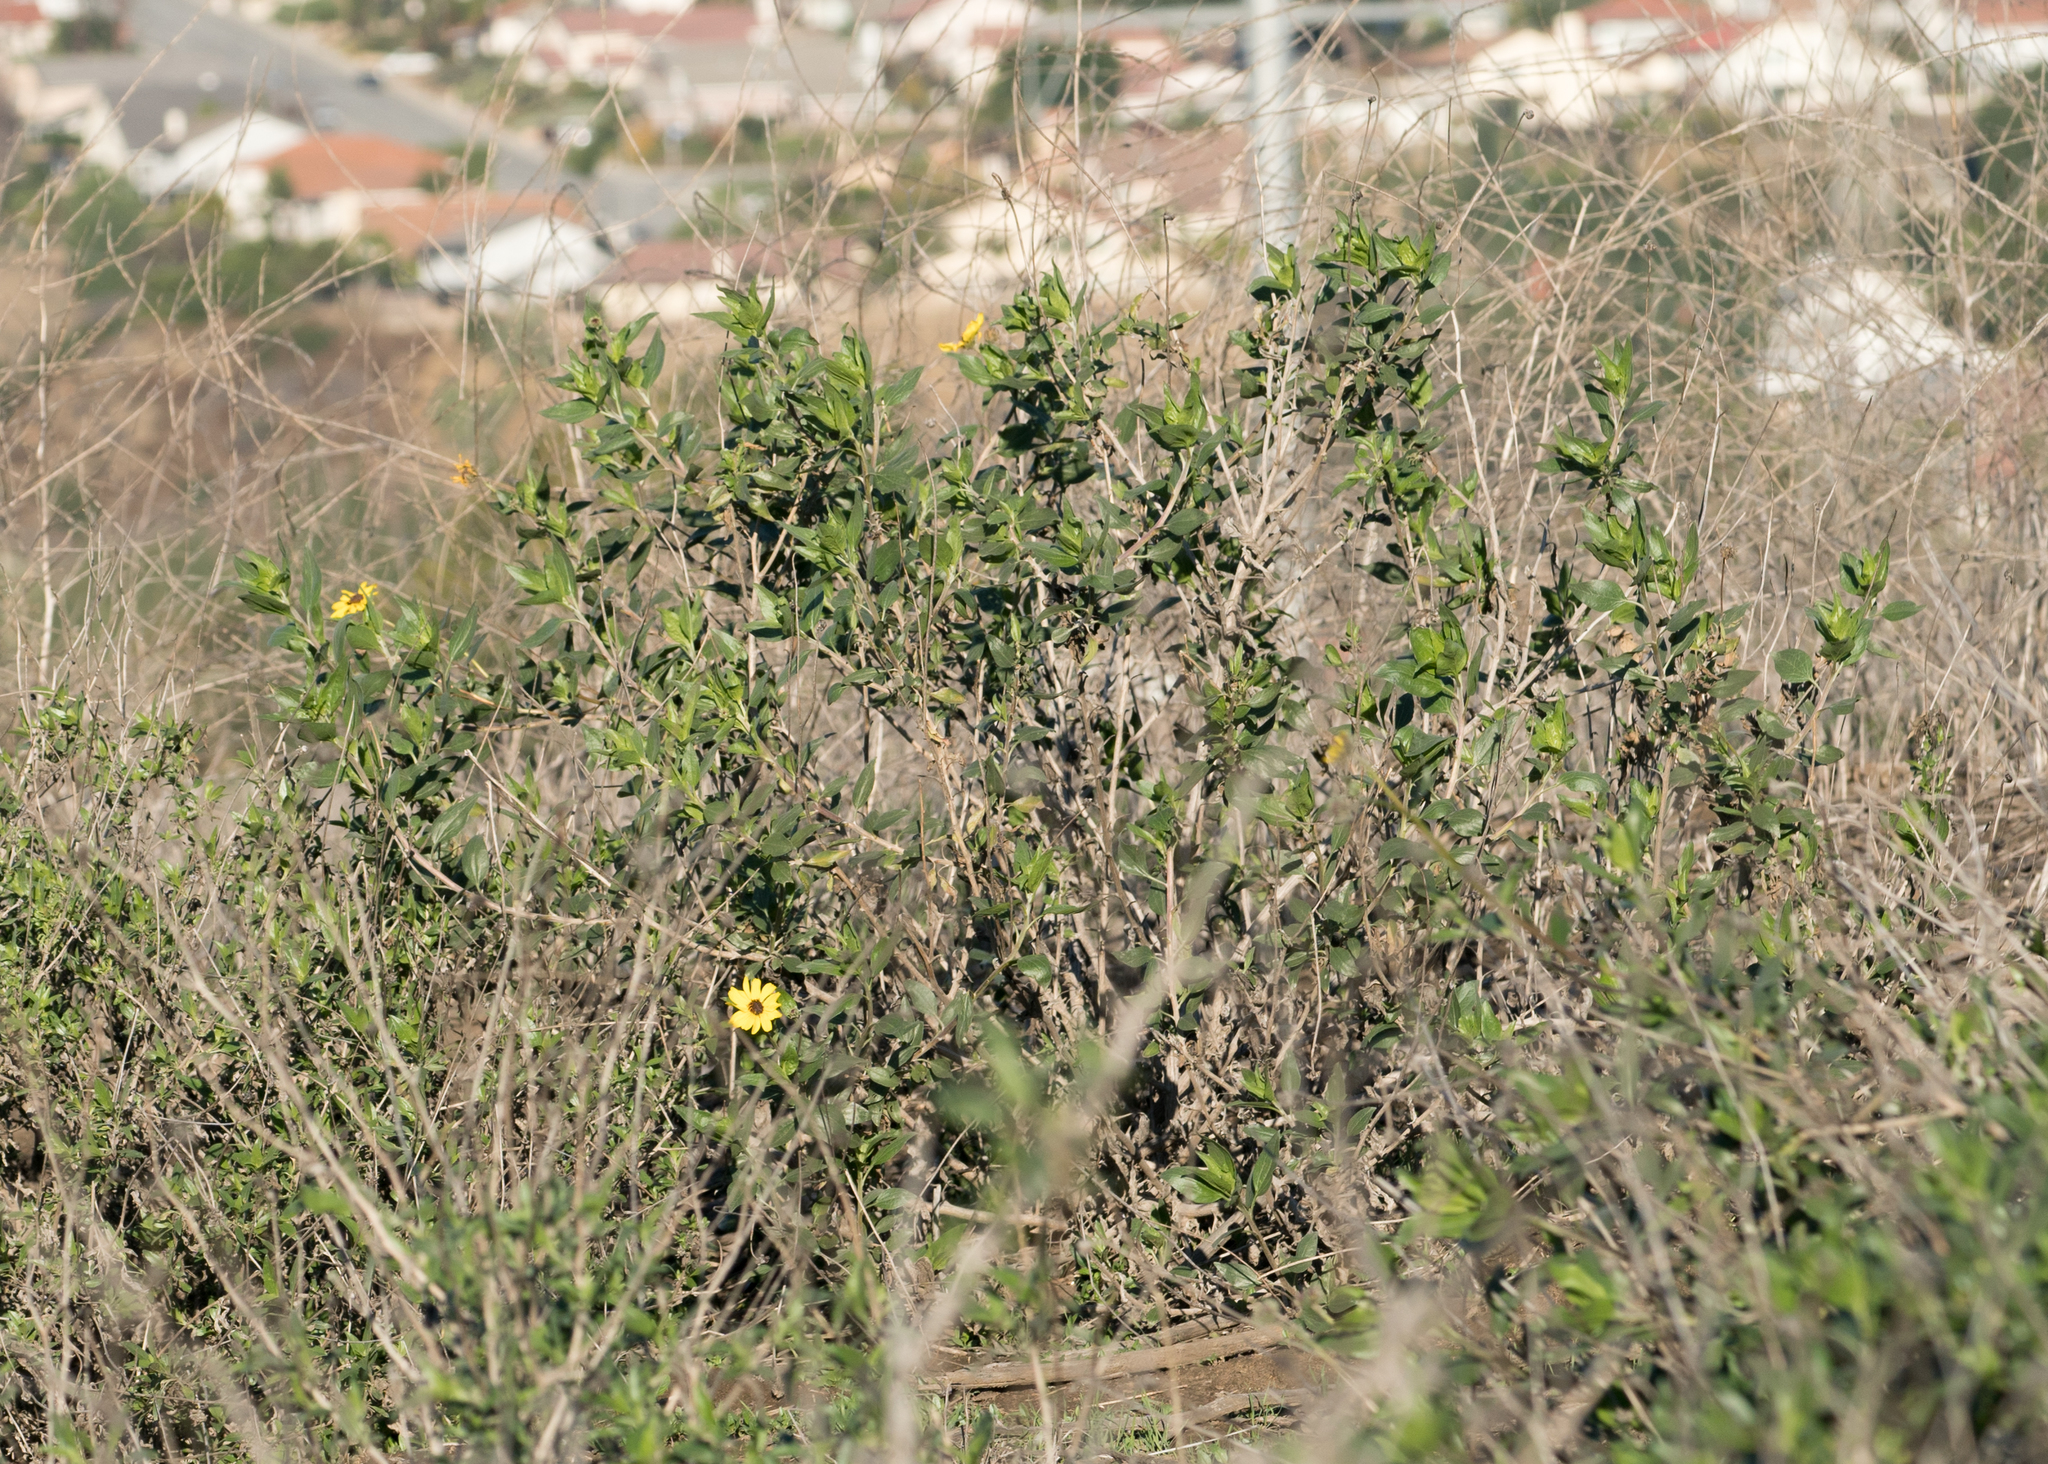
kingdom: Plantae
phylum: Tracheophyta
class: Magnoliopsida
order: Asterales
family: Asteraceae
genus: Encelia
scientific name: Encelia californica
